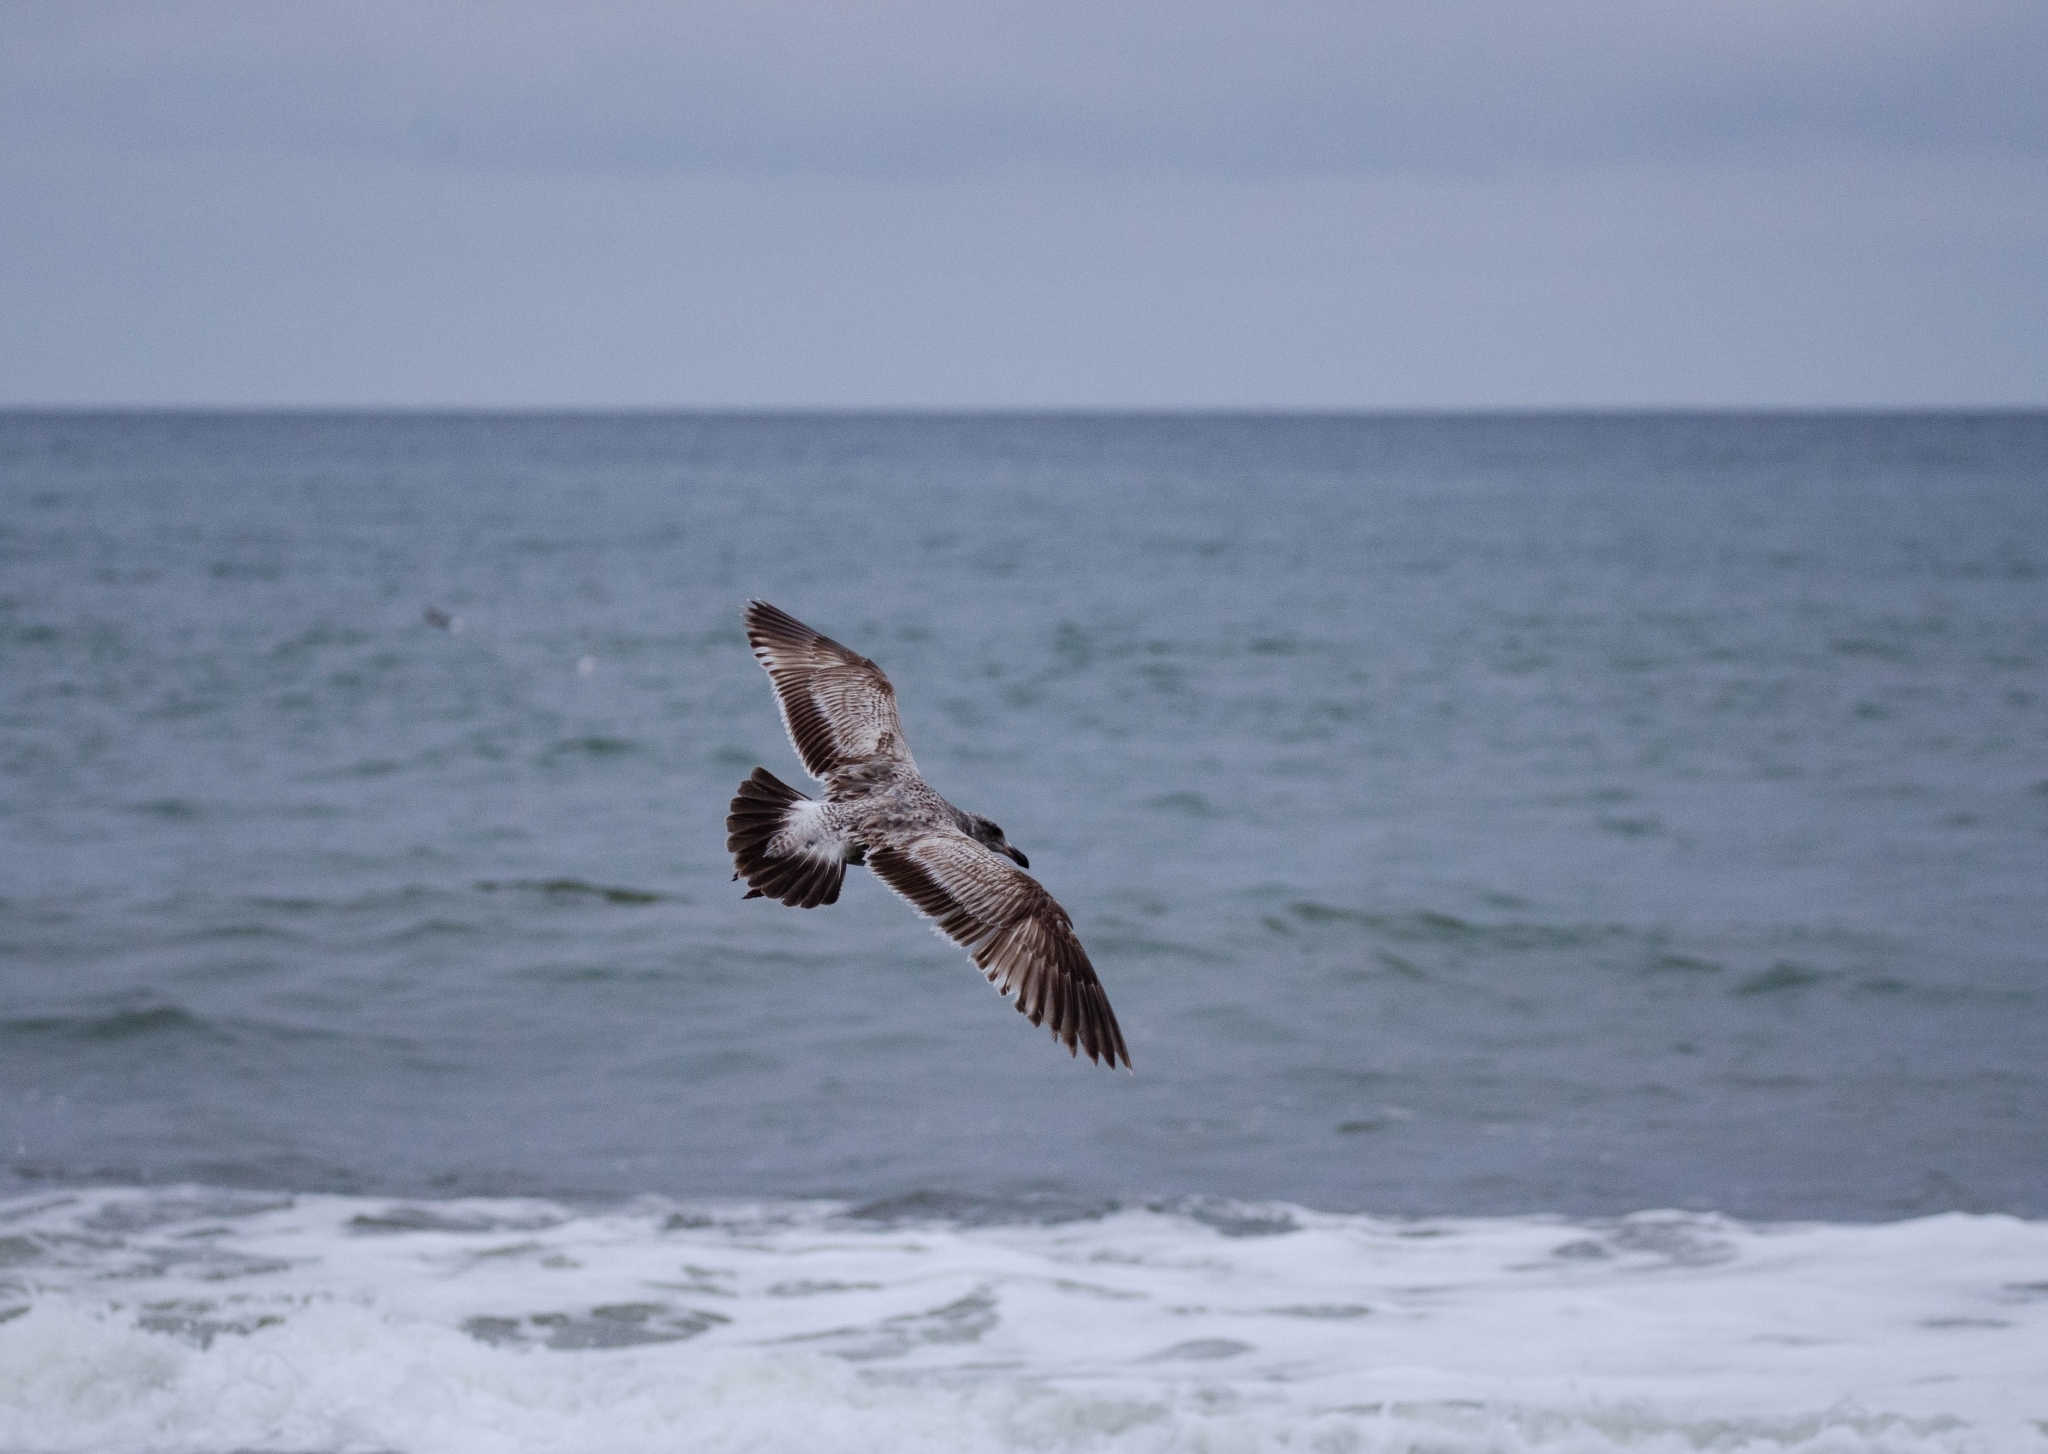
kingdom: Animalia
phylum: Chordata
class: Aves
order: Charadriiformes
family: Laridae
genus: Larus
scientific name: Larus occidentalis
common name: Western gull
